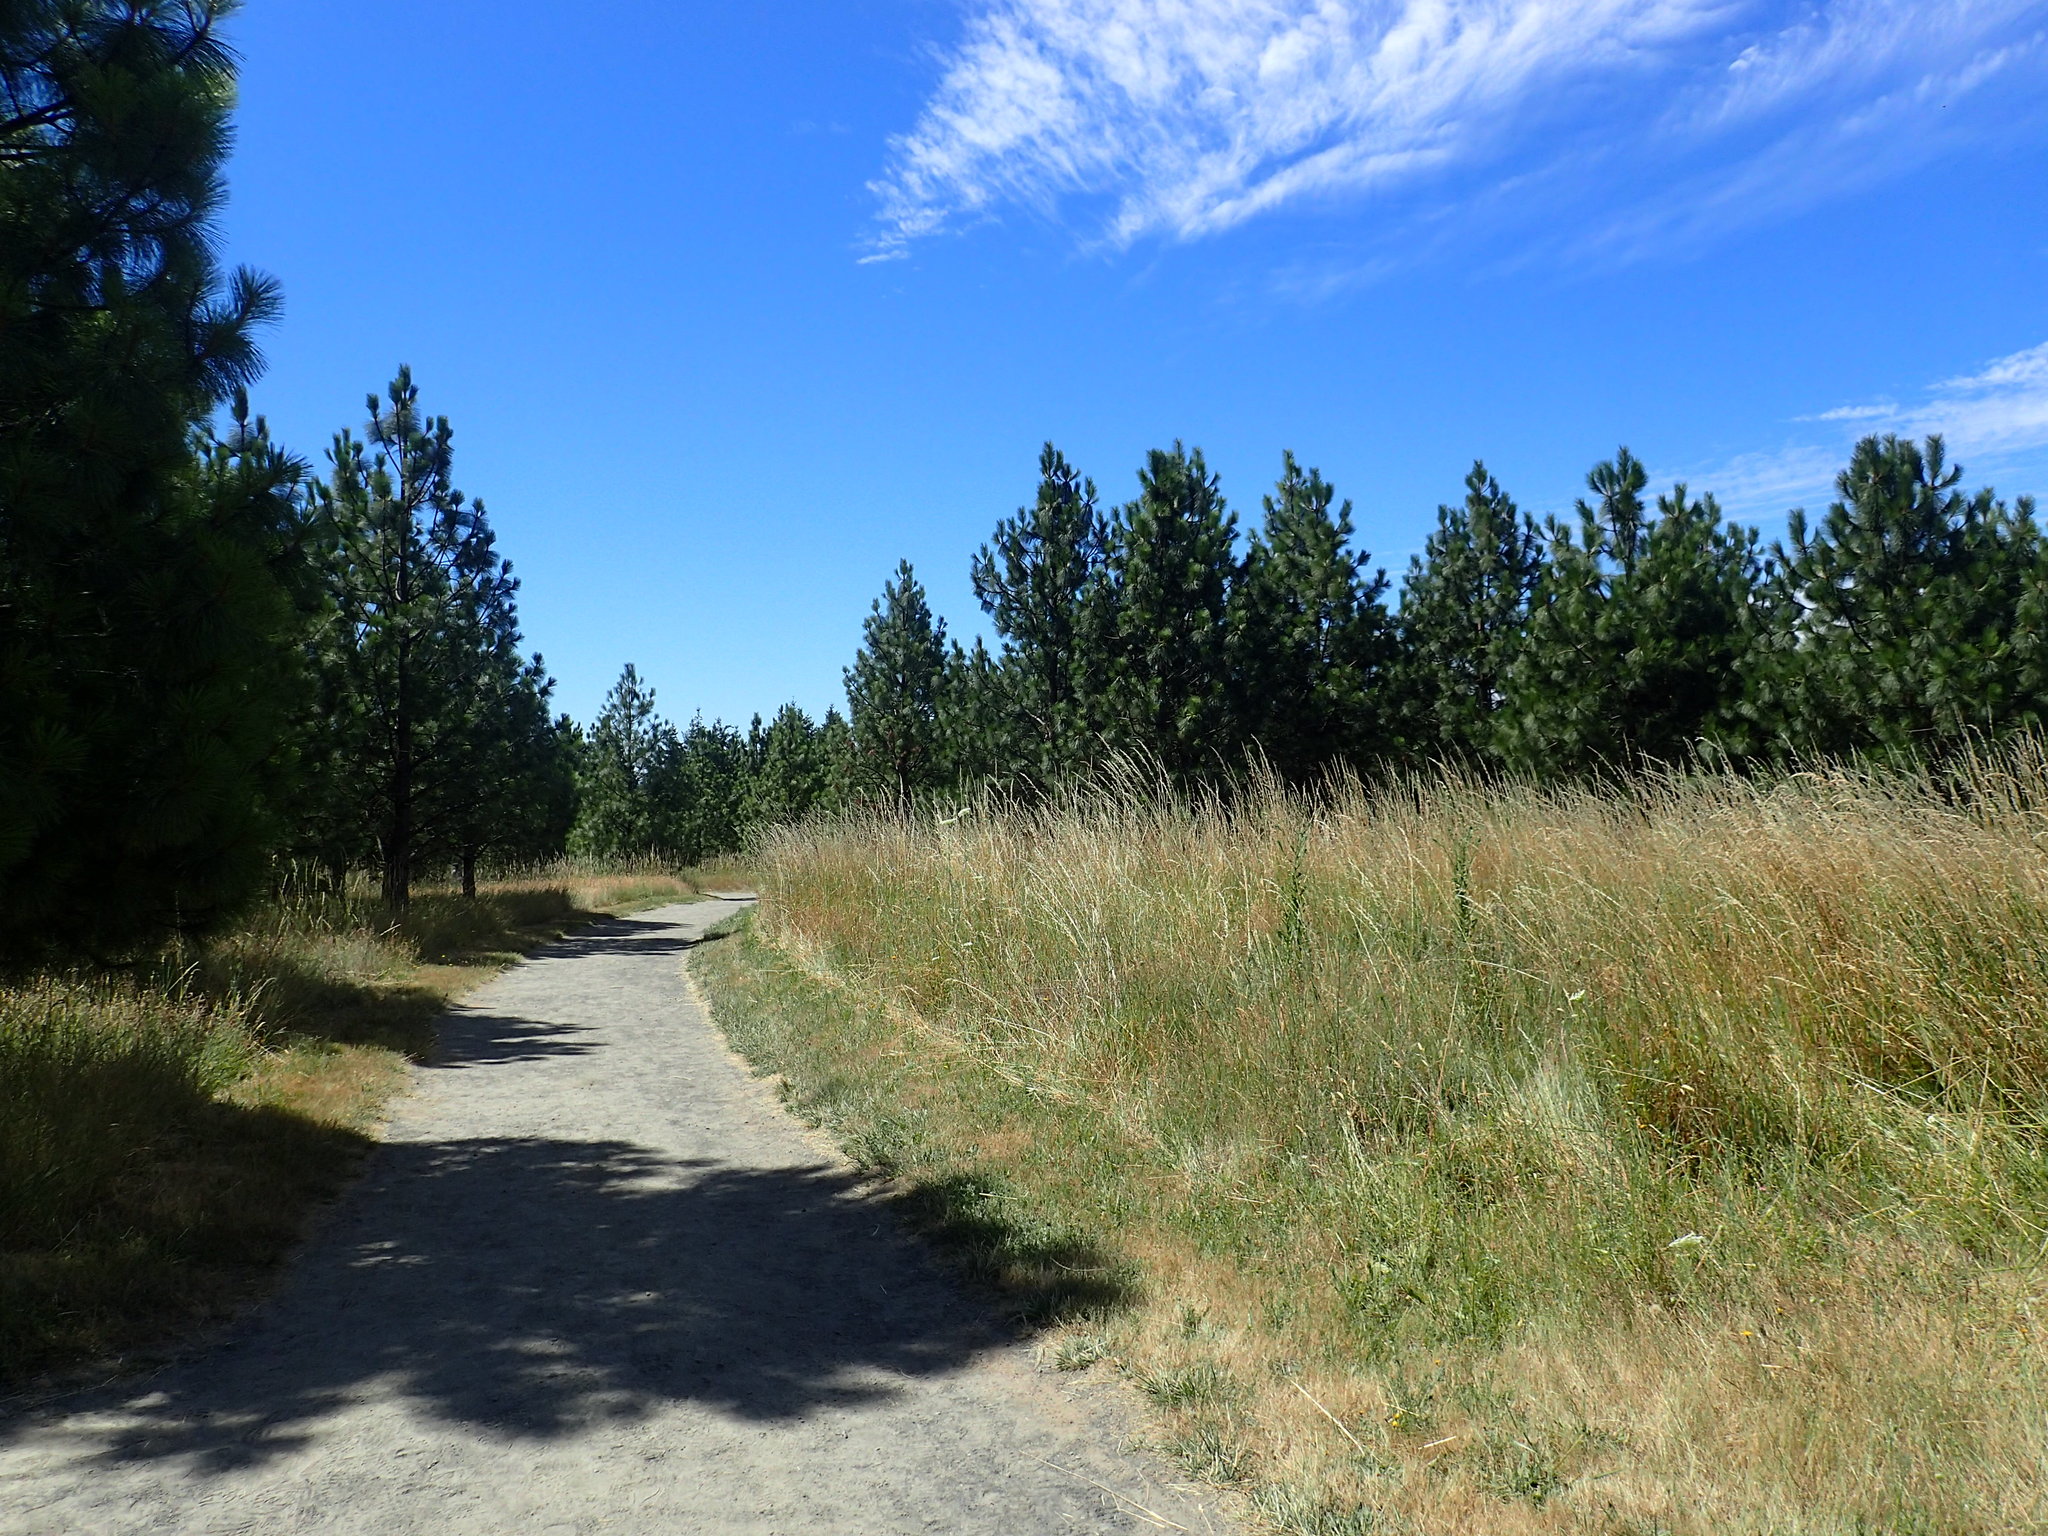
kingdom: Plantae
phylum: Tracheophyta
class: Pinopsida
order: Pinales
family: Pinaceae
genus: Pinus
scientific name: Pinus ponderosa
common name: Western yellow-pine
